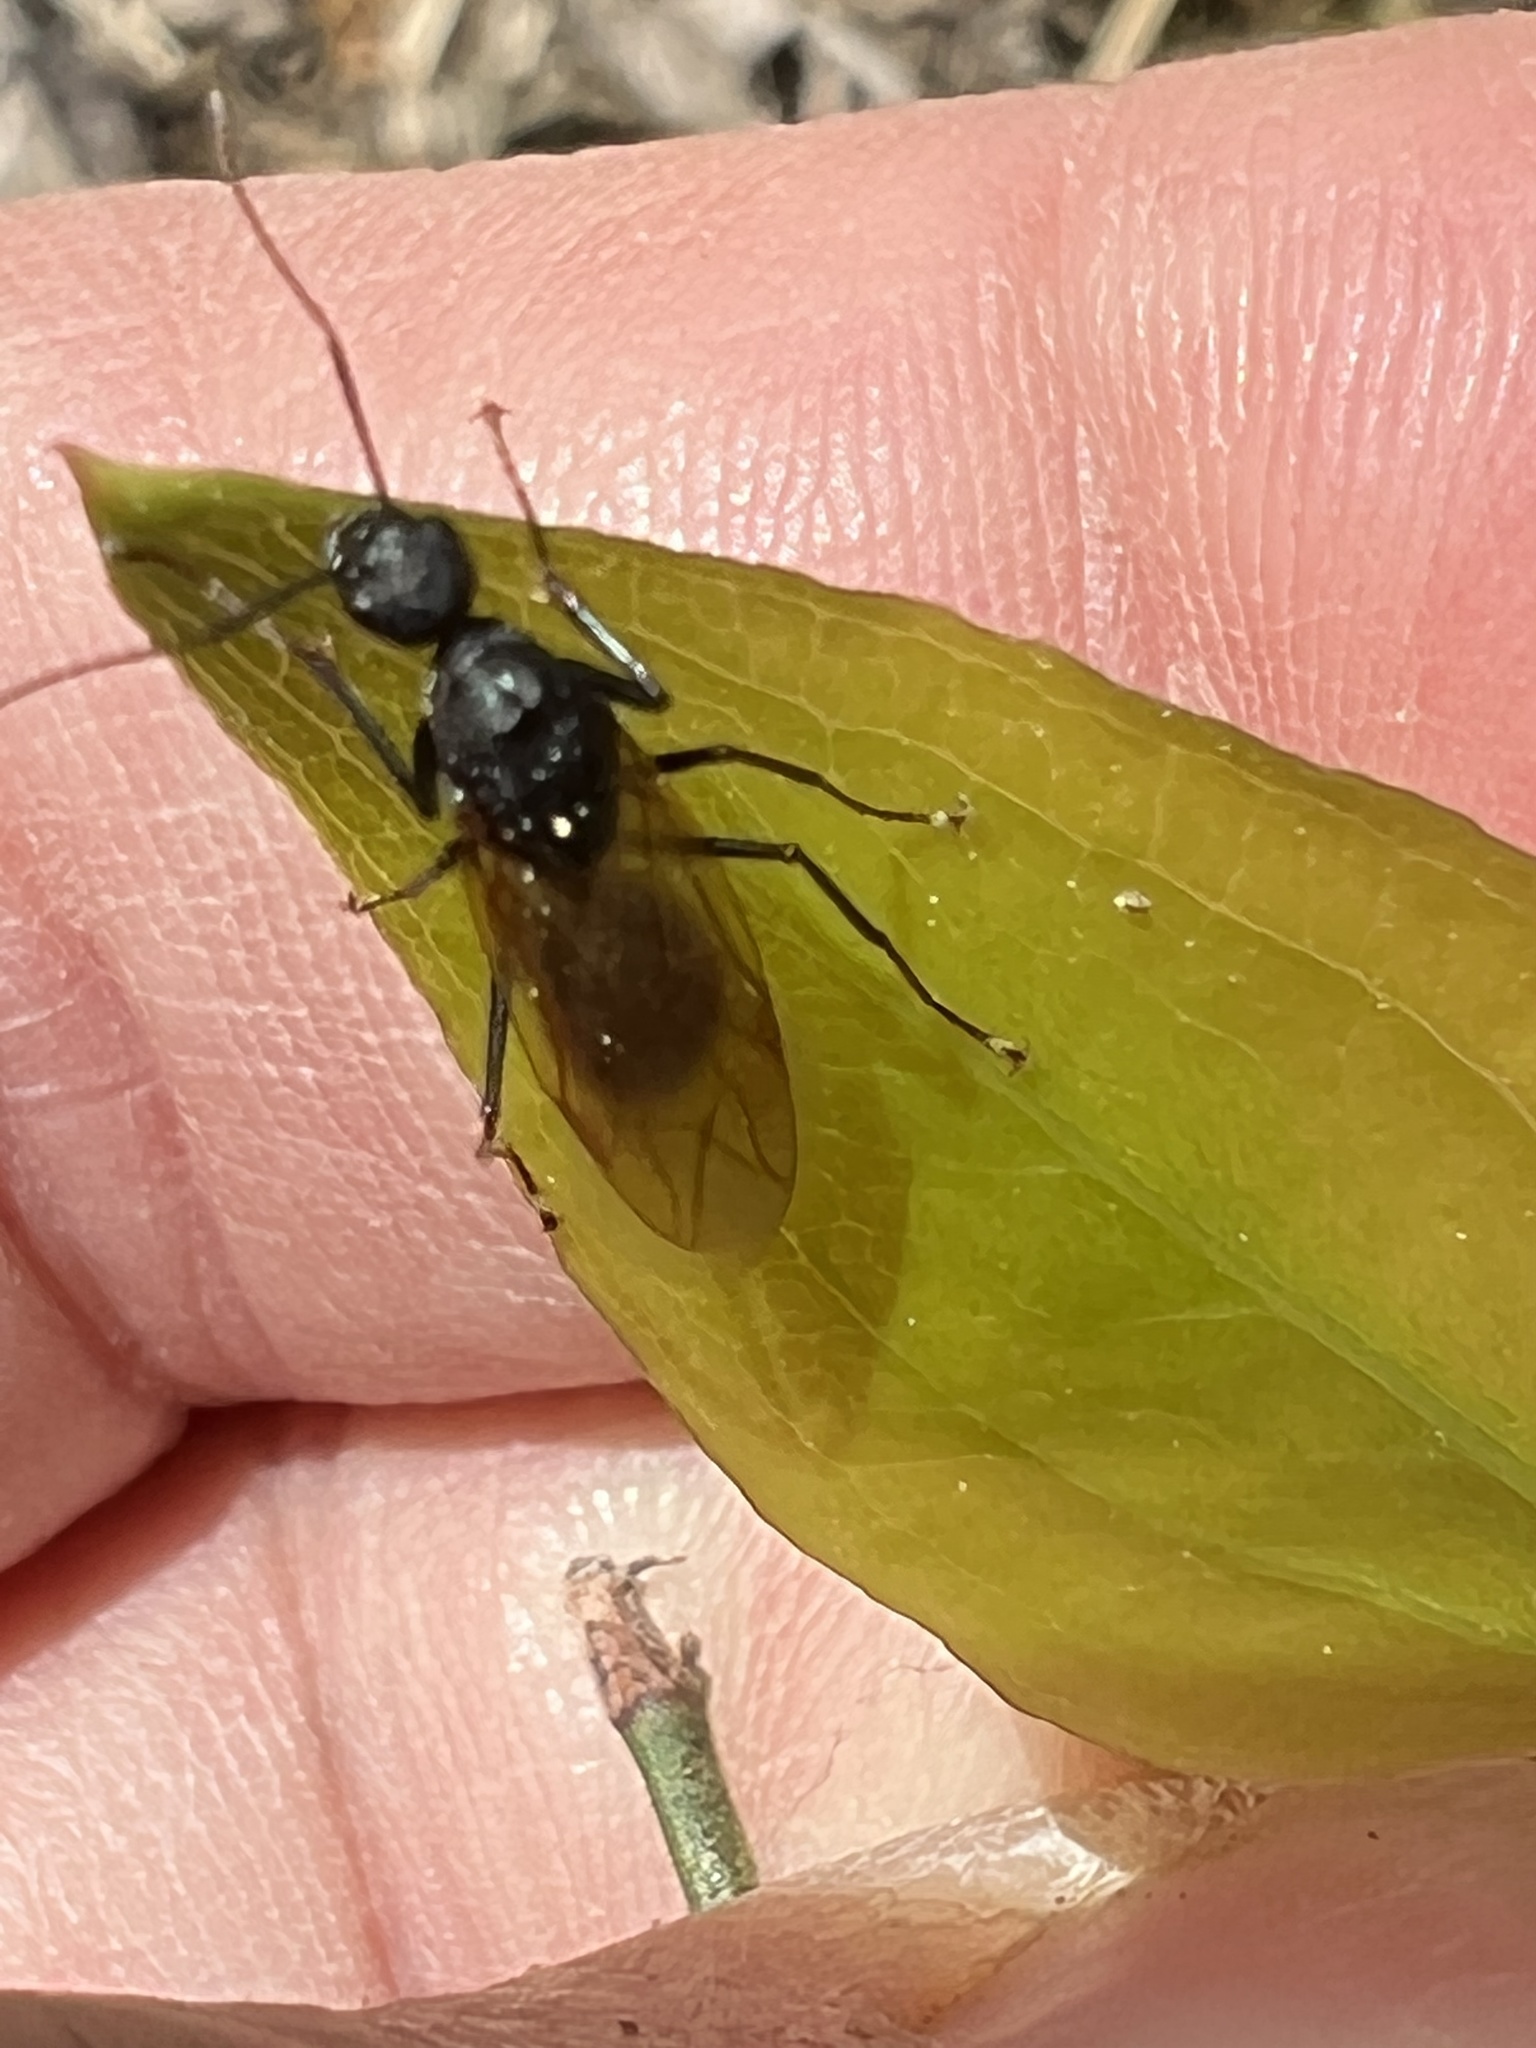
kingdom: Animalia
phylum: Arthropoda
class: Insecta
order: Hymenoptera
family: Formicidae
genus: Camponotus
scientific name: Camponotus pennsylvanicus
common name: Black carpenter ant
